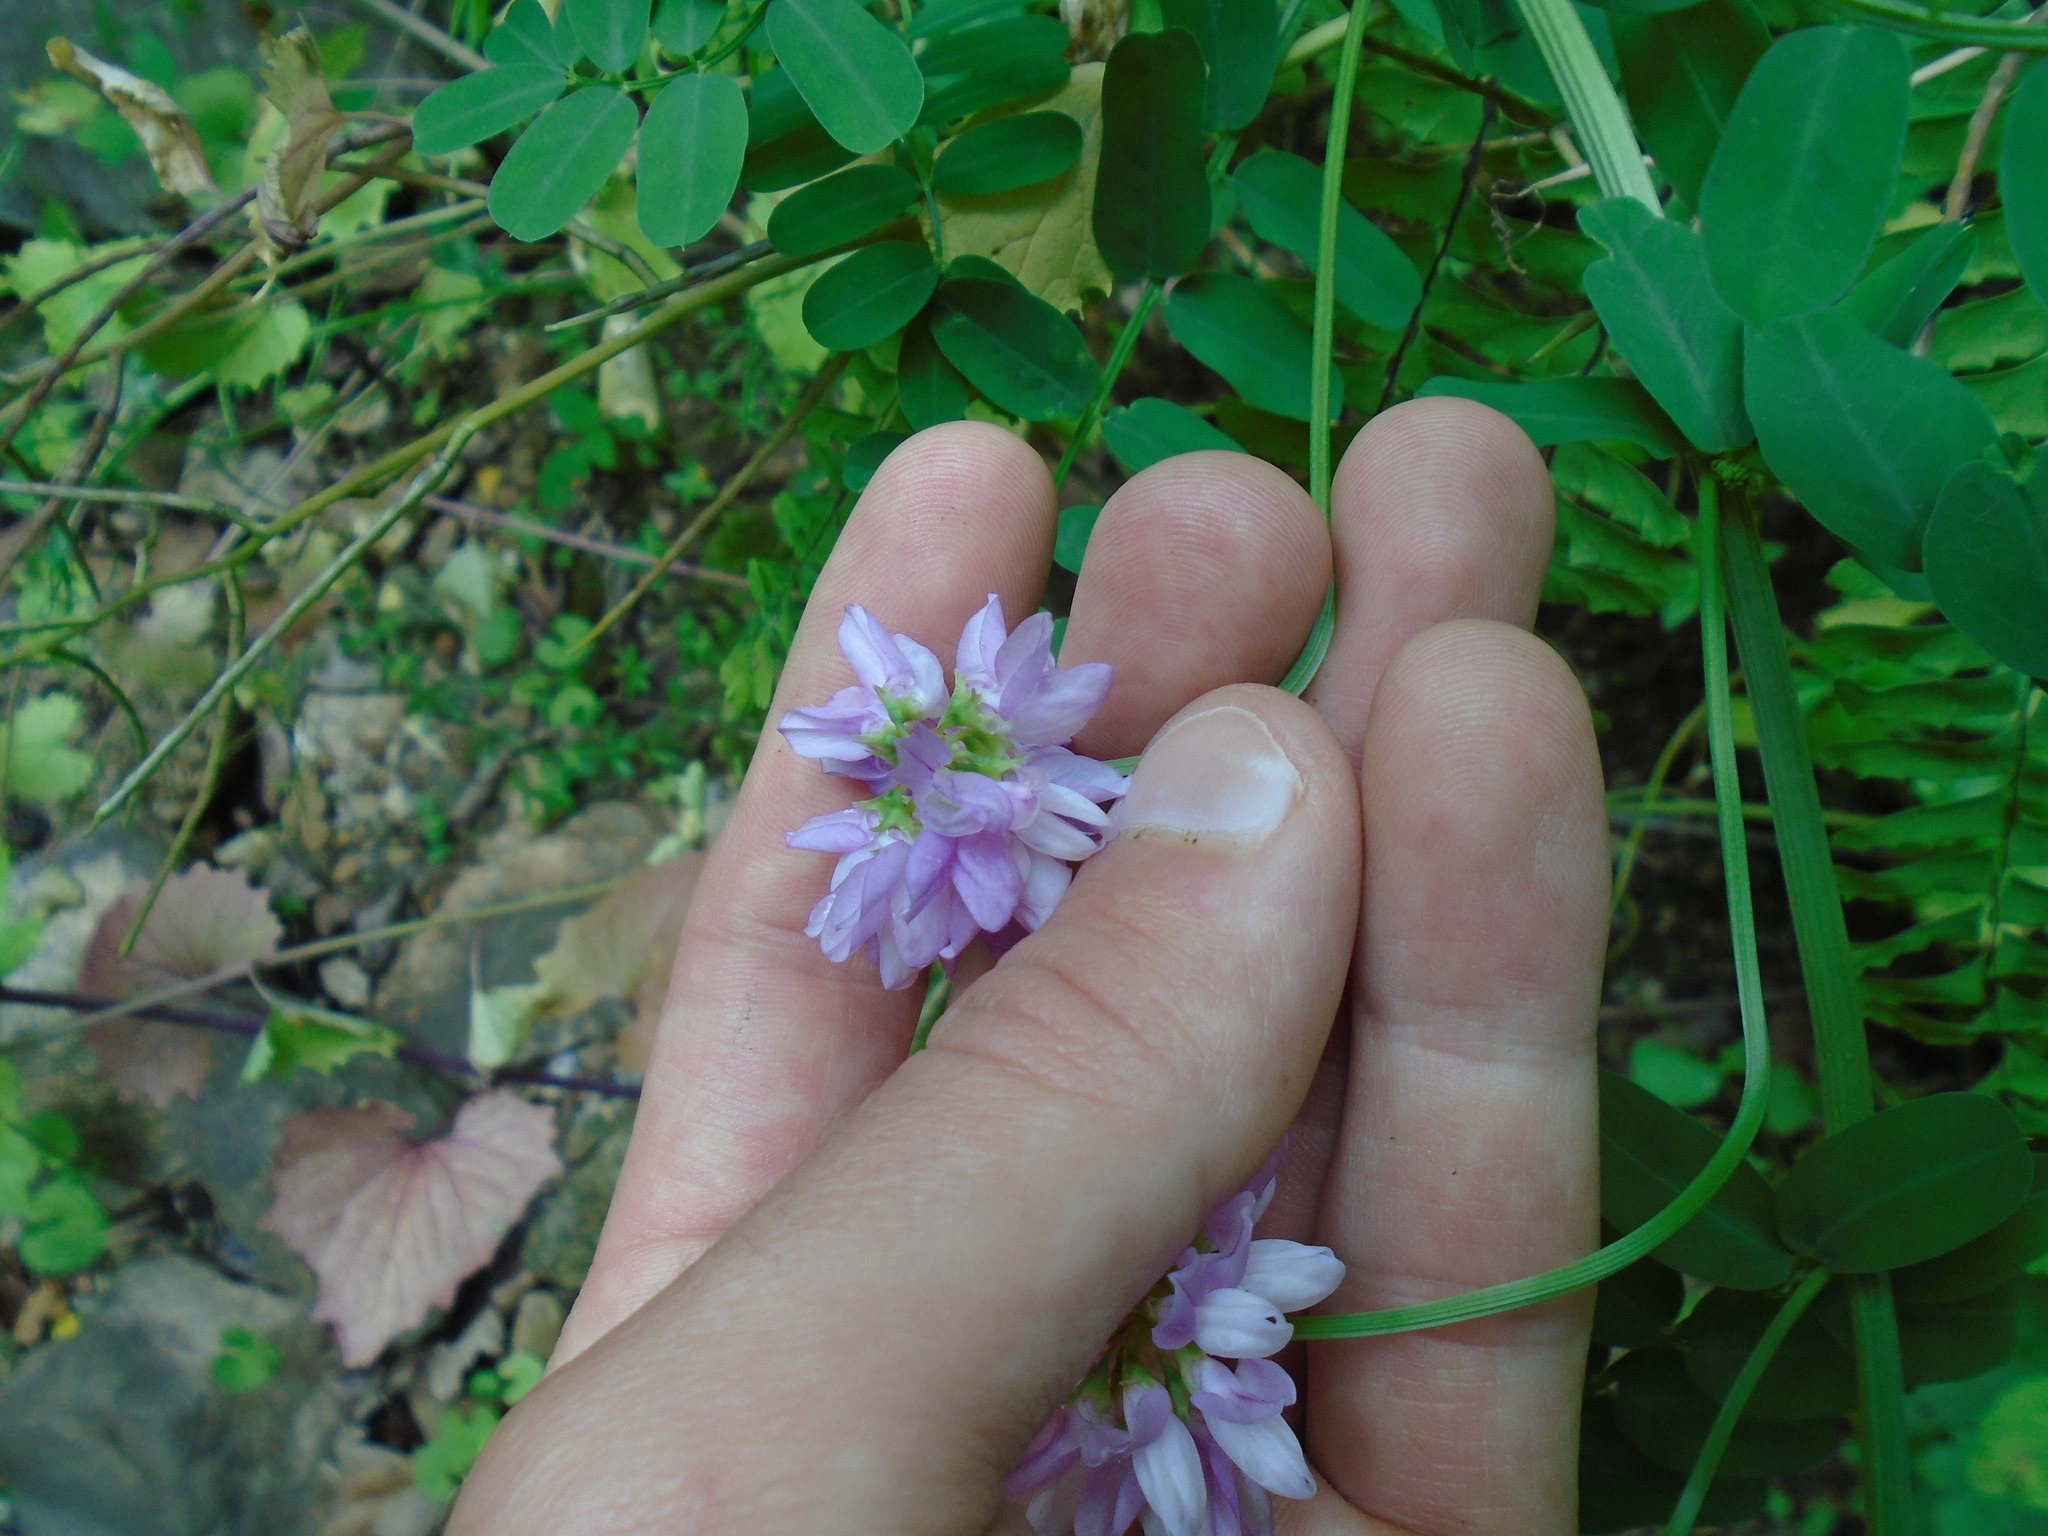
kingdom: Plantae
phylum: Tracheophyta
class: Magnoliopsida
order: Fabales
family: Fabaceae
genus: Coronilla
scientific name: Coronilla varia
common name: Crownvetch
